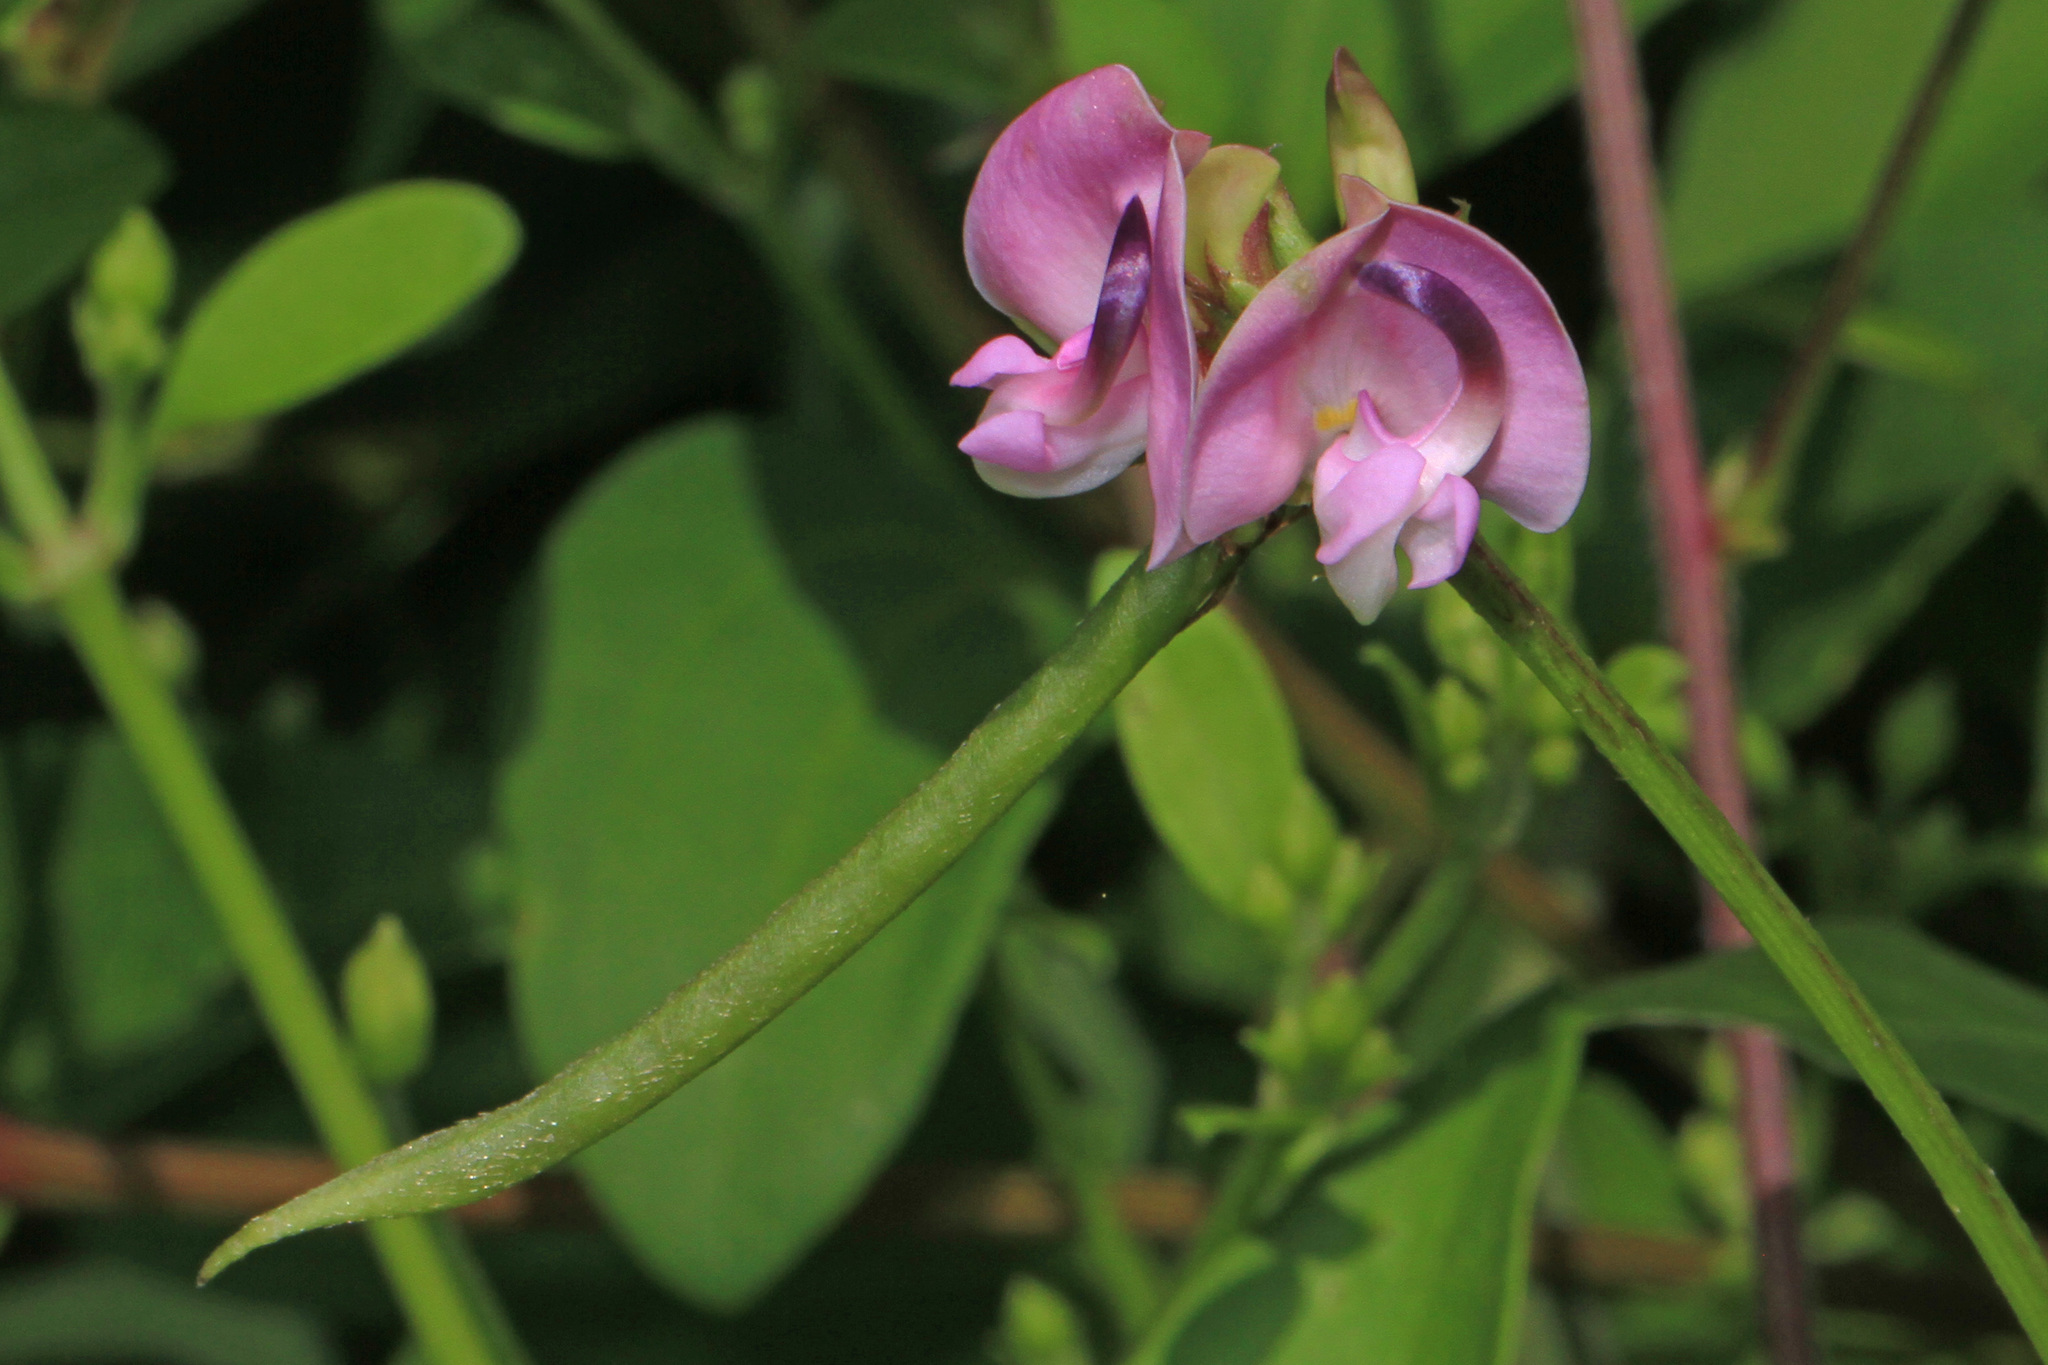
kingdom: Plantae
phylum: Tracheophyta
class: Magnoliopsida
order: Fabales
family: Fabaceae
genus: Strophostyles
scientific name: Strophostyles helvola
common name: Trailing wild bean
